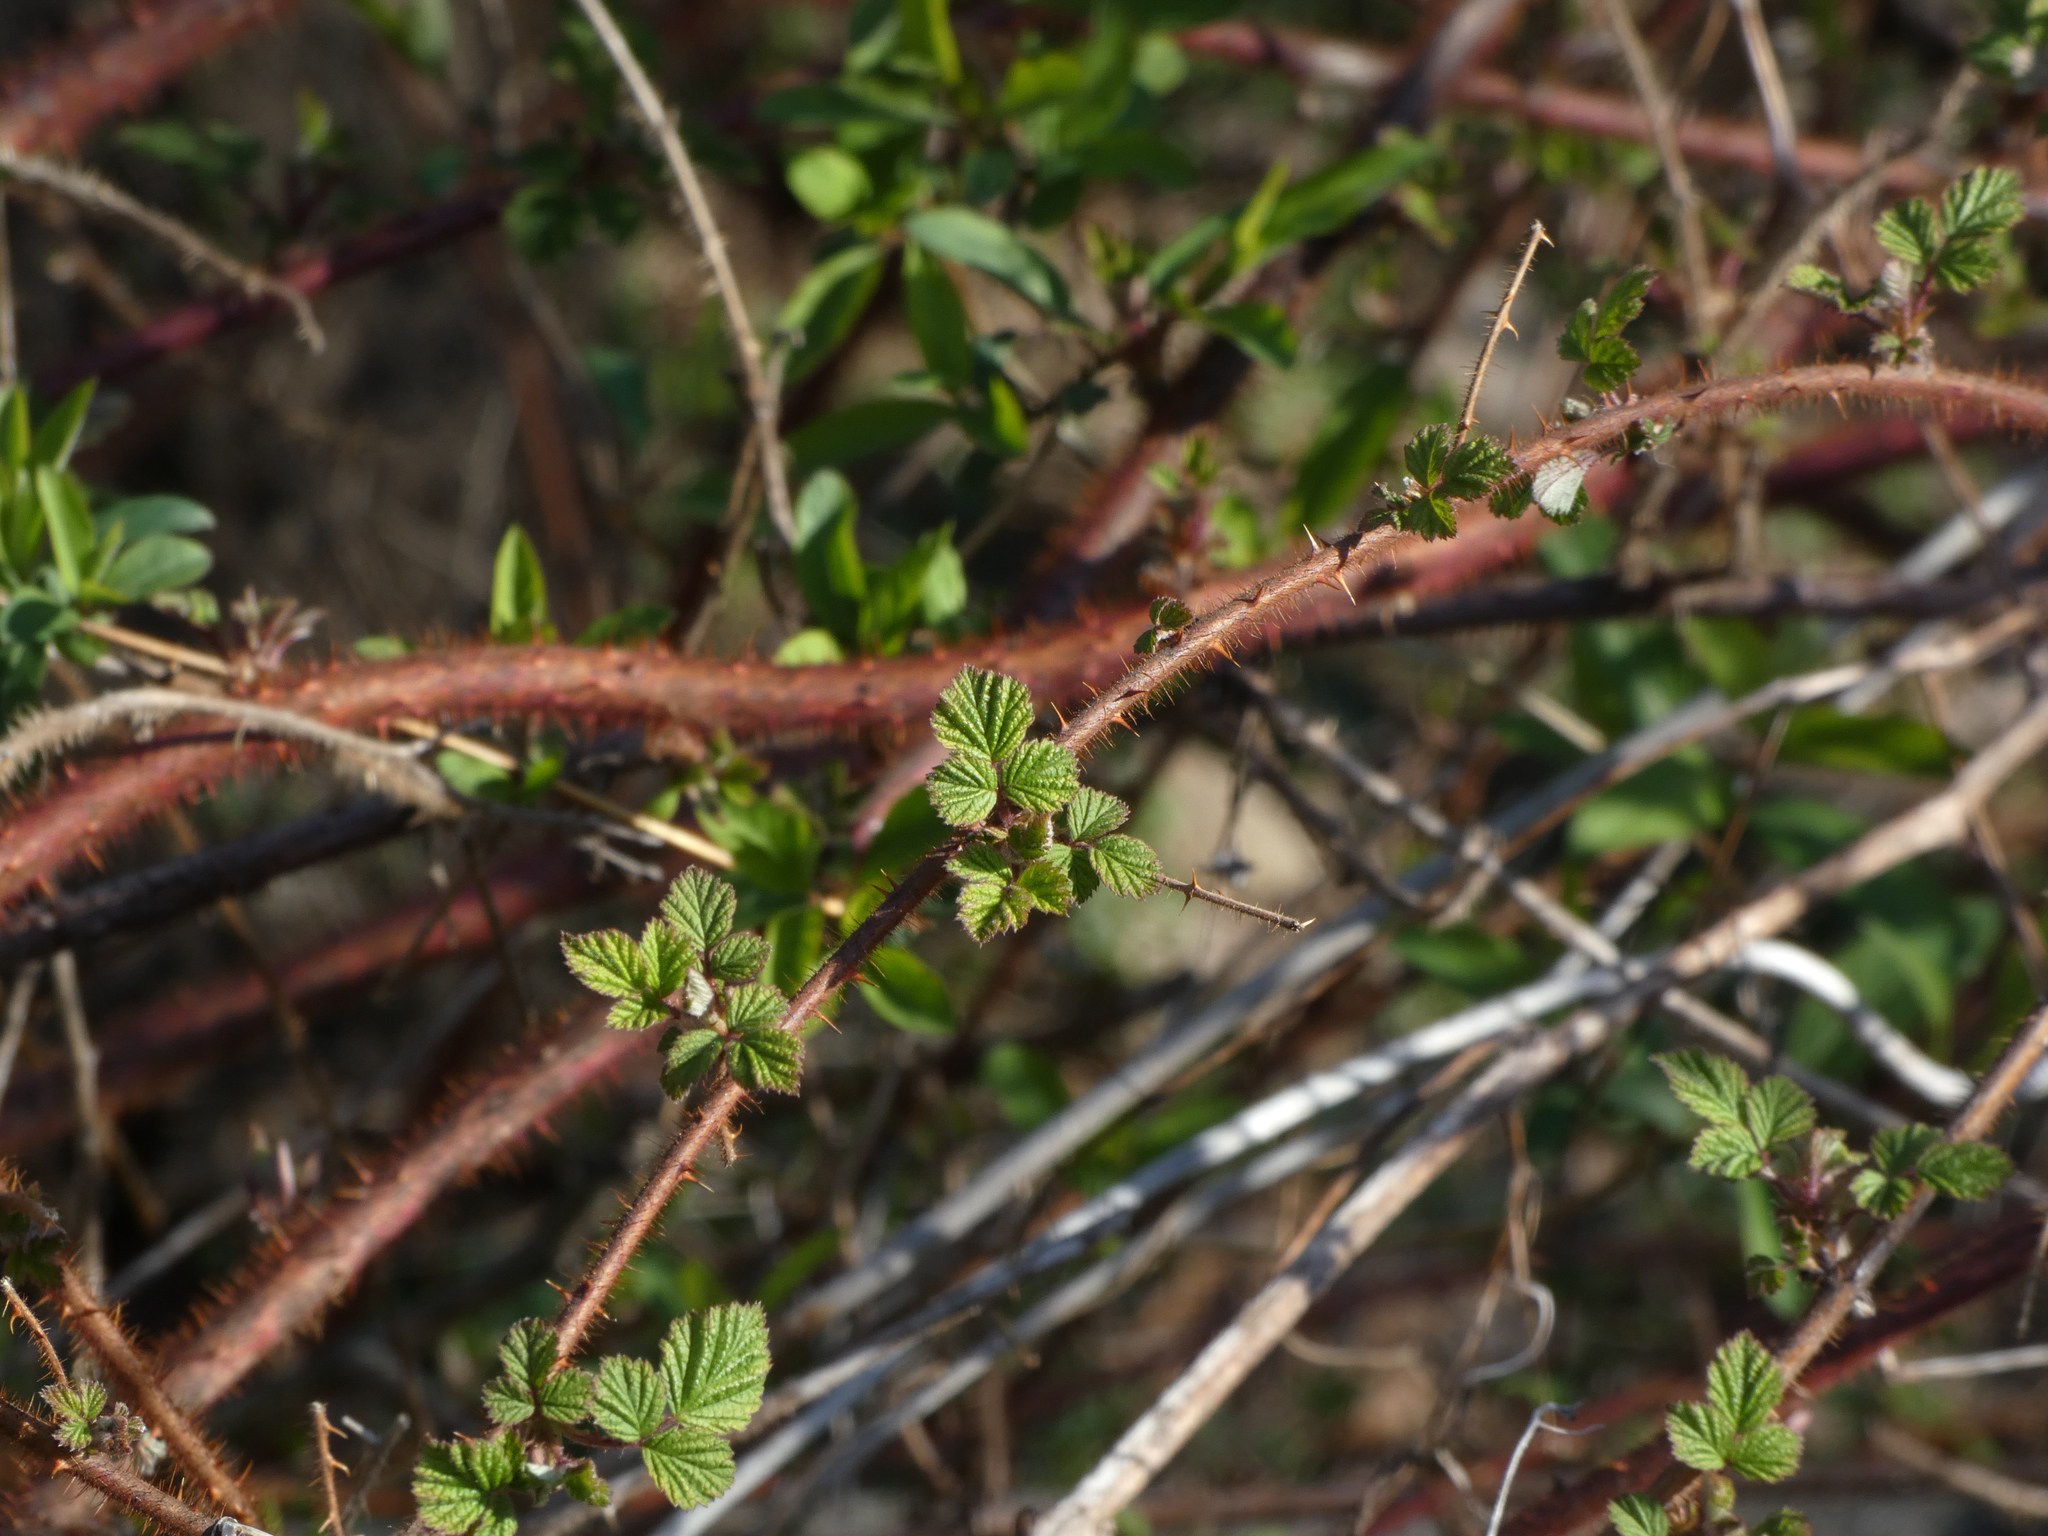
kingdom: Plantae
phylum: Tracheophyta
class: Magnoliopsida
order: Rosales
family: Rosaceae
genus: Rubus
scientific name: Rubus phoenicolasius
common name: Japanese wineberry
